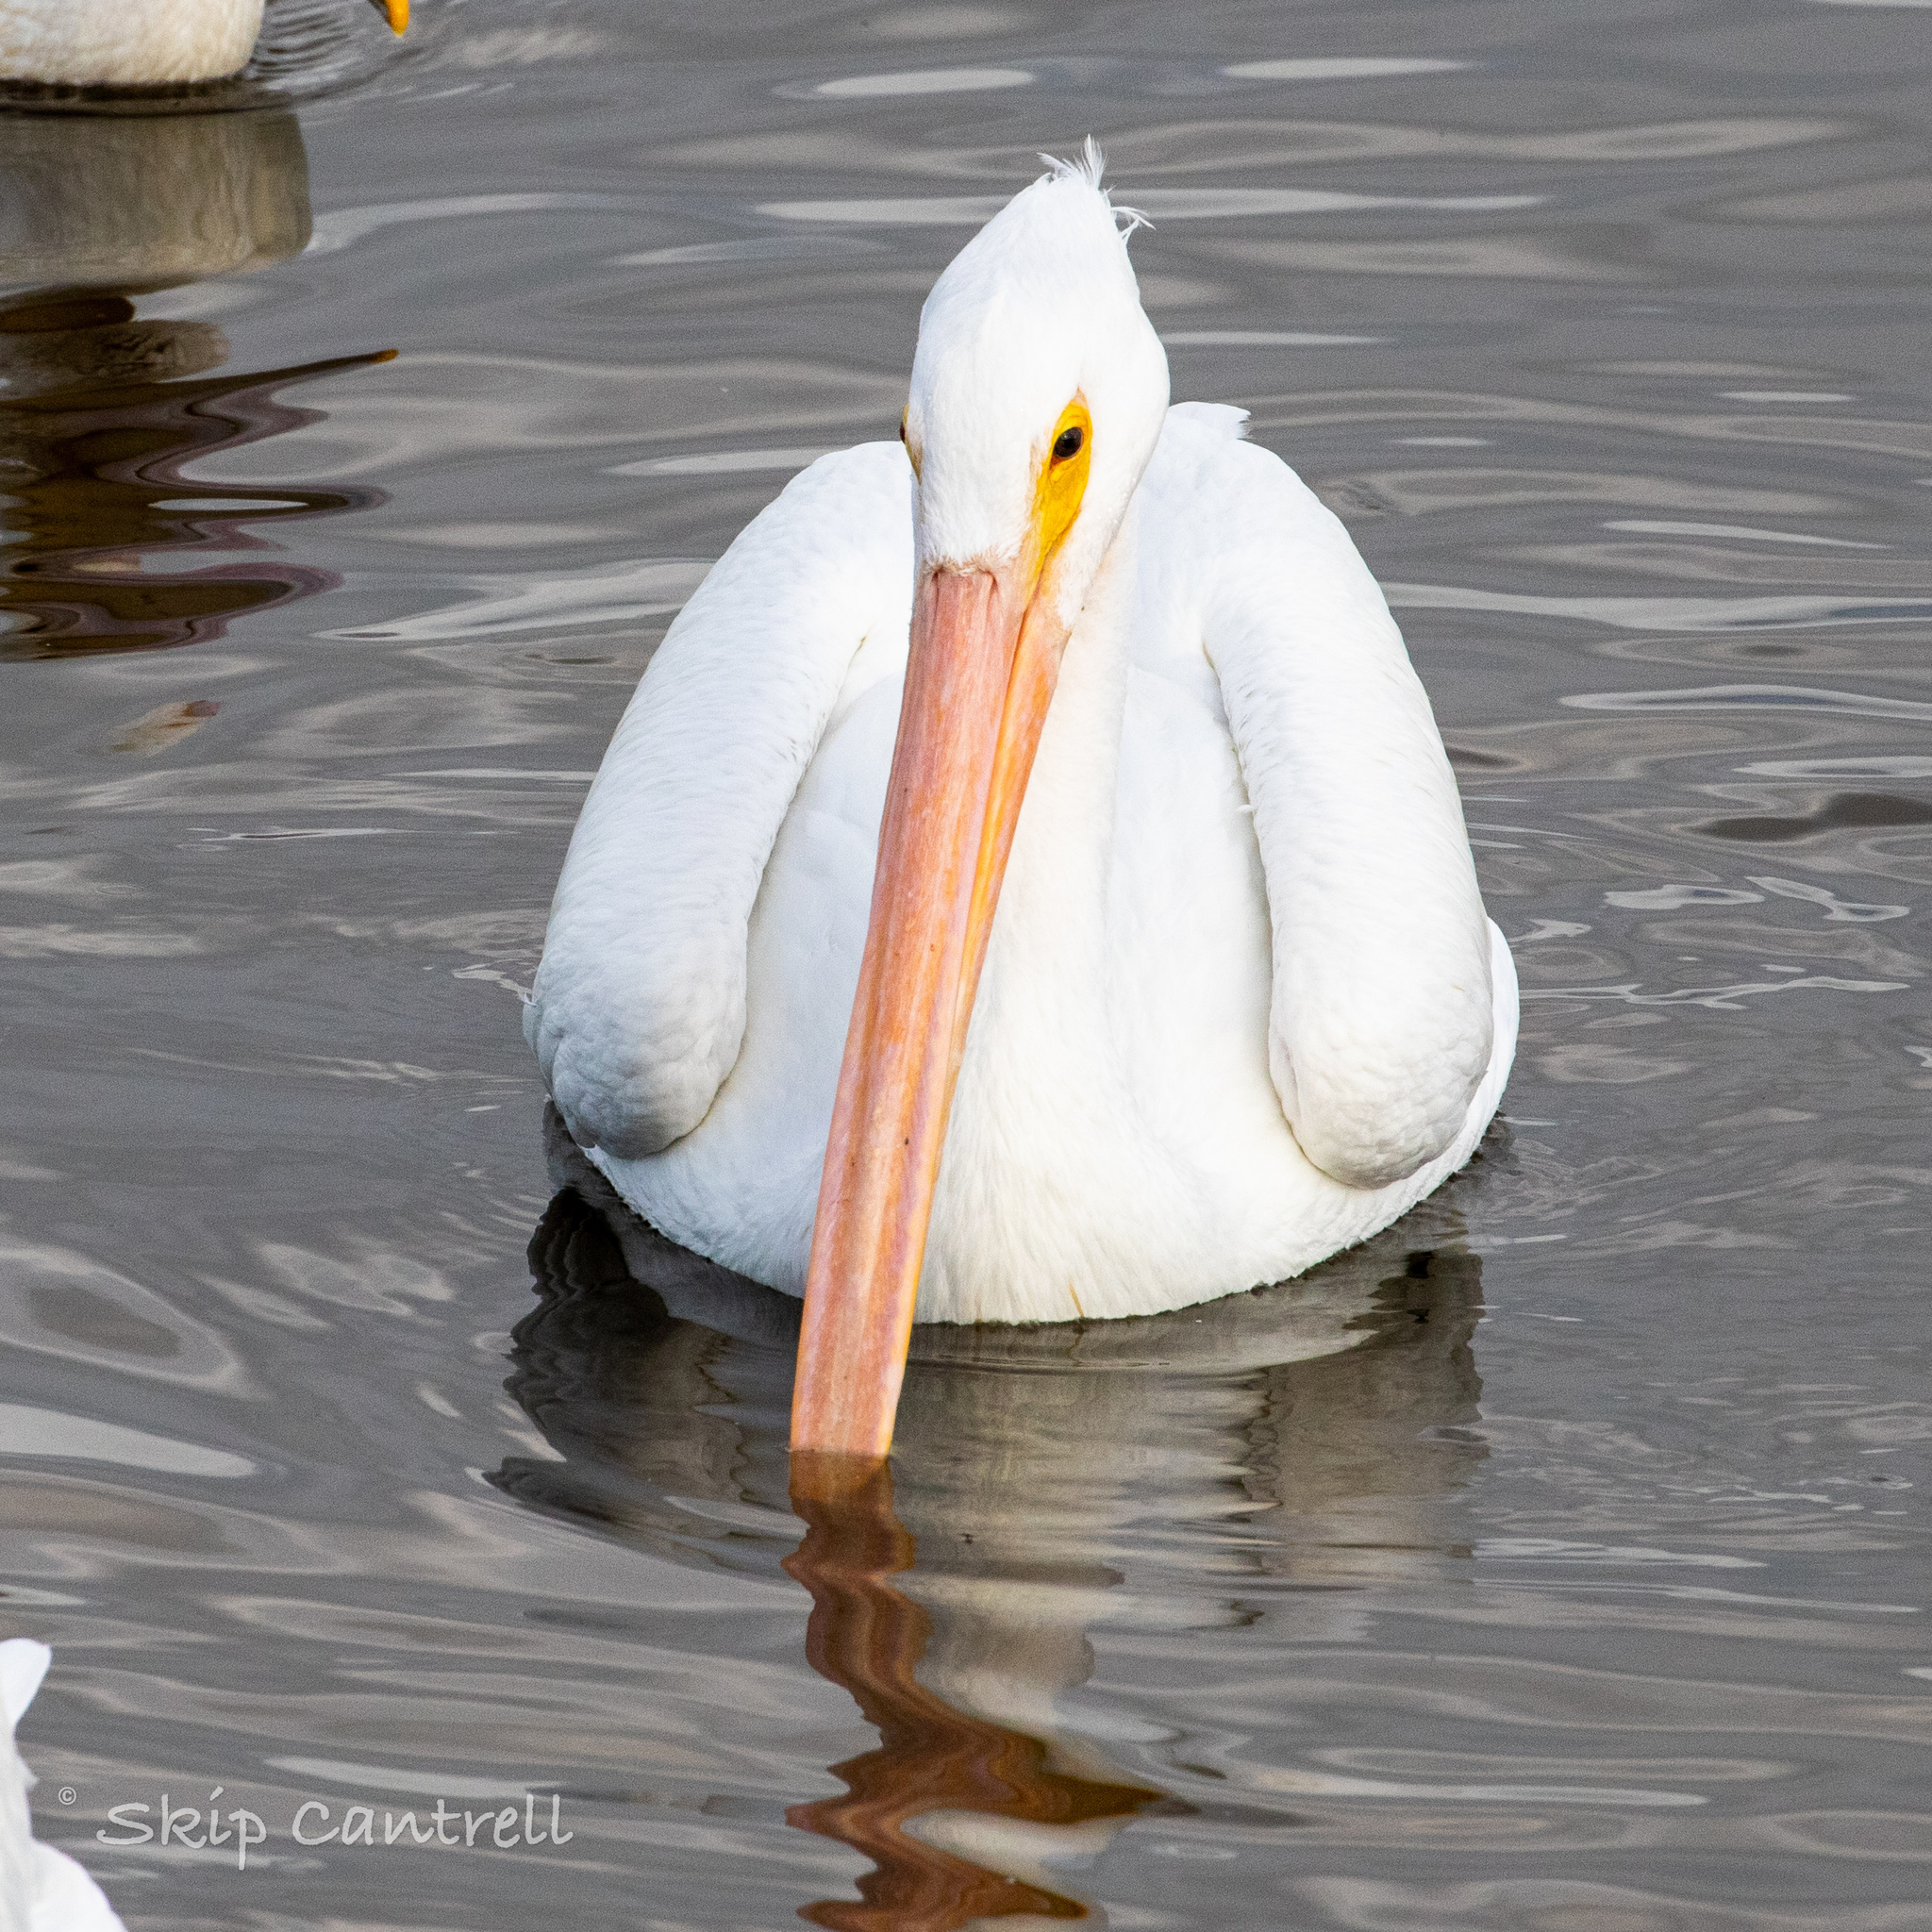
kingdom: Animalia
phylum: Chordata
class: Aves
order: Pelecaniformes
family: Pelecanidae
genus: Pelecanus
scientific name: Pelecanus erythrorhynchos
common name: American white pelican
